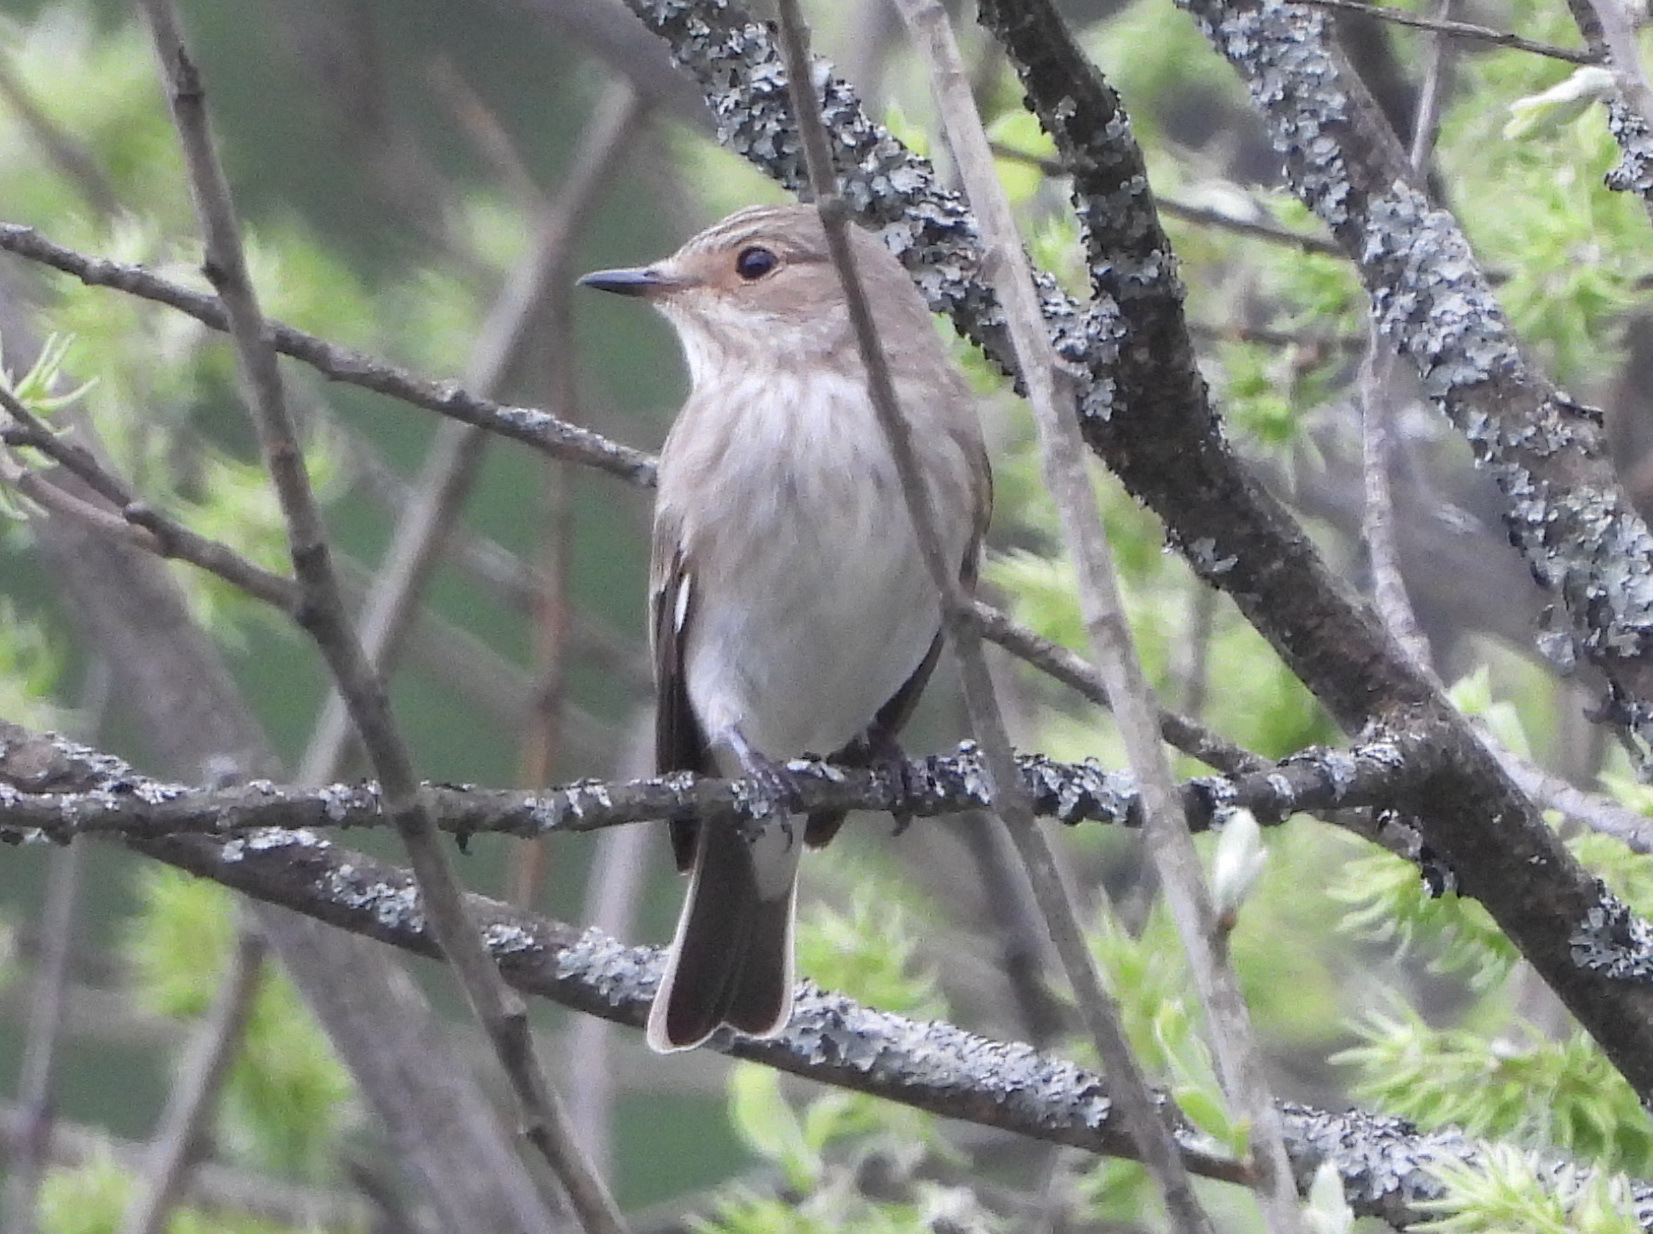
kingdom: Animalia
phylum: Chordata
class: Aves
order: Passeriformes
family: Muscicapidae
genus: Muscicapa
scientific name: Muscicapa striata
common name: Spotted flycatcher
